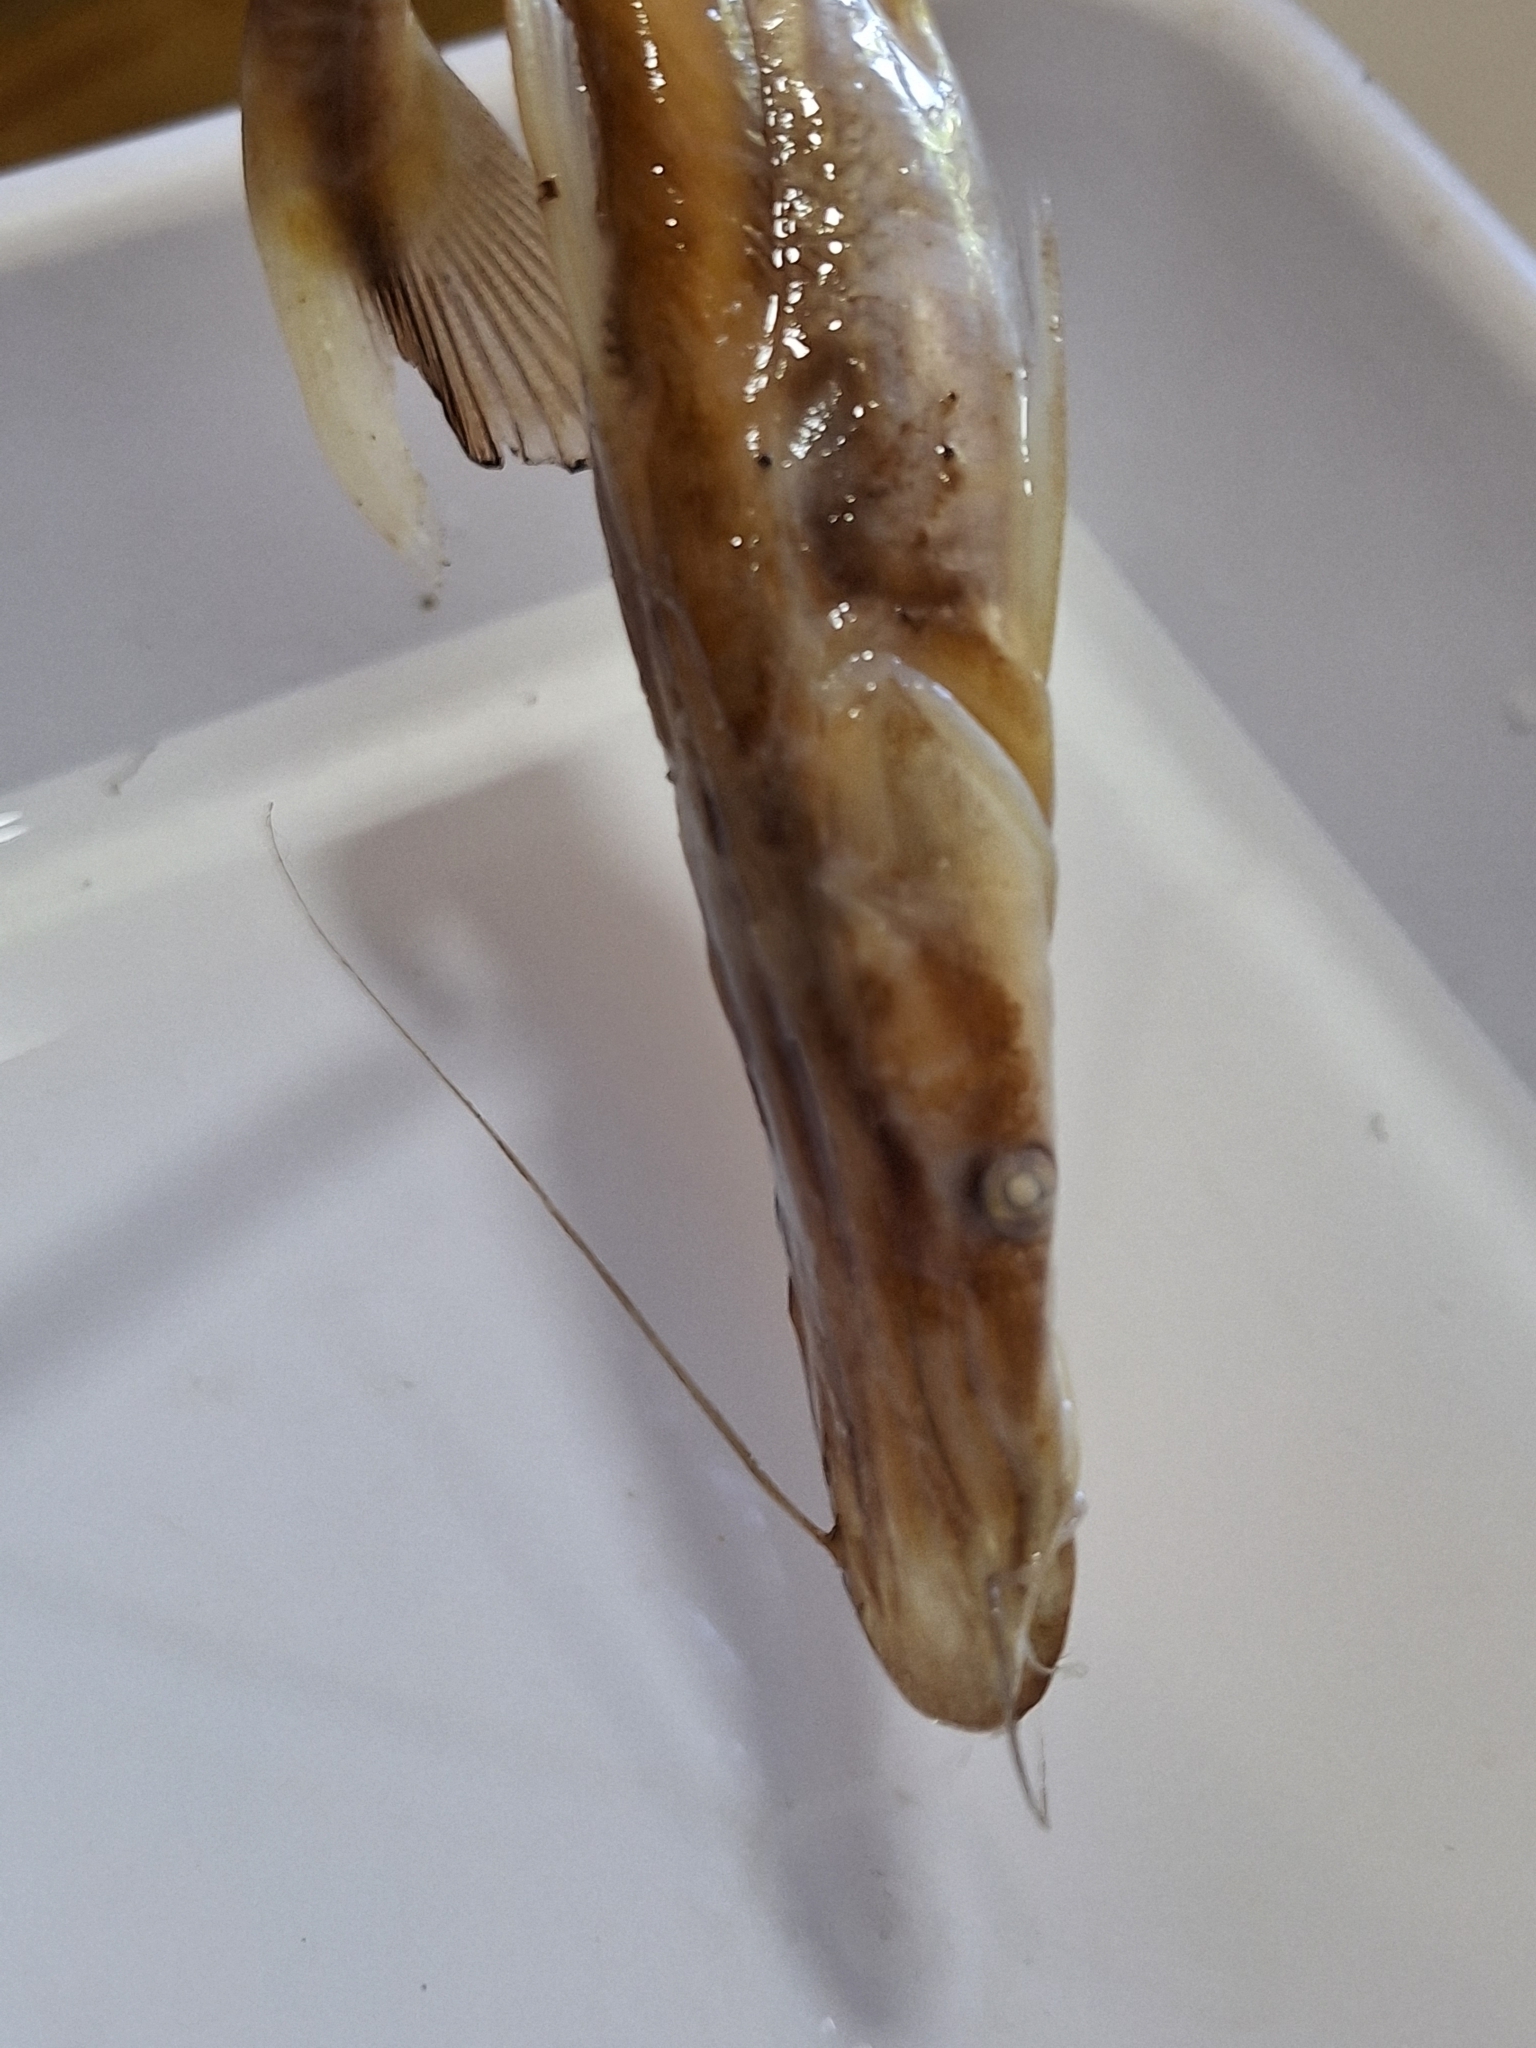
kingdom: Animalia
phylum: Chordata
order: Siluriformes
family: Pimelodidae
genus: Sorubim
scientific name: Sorubim lima
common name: Duckbill catfish
